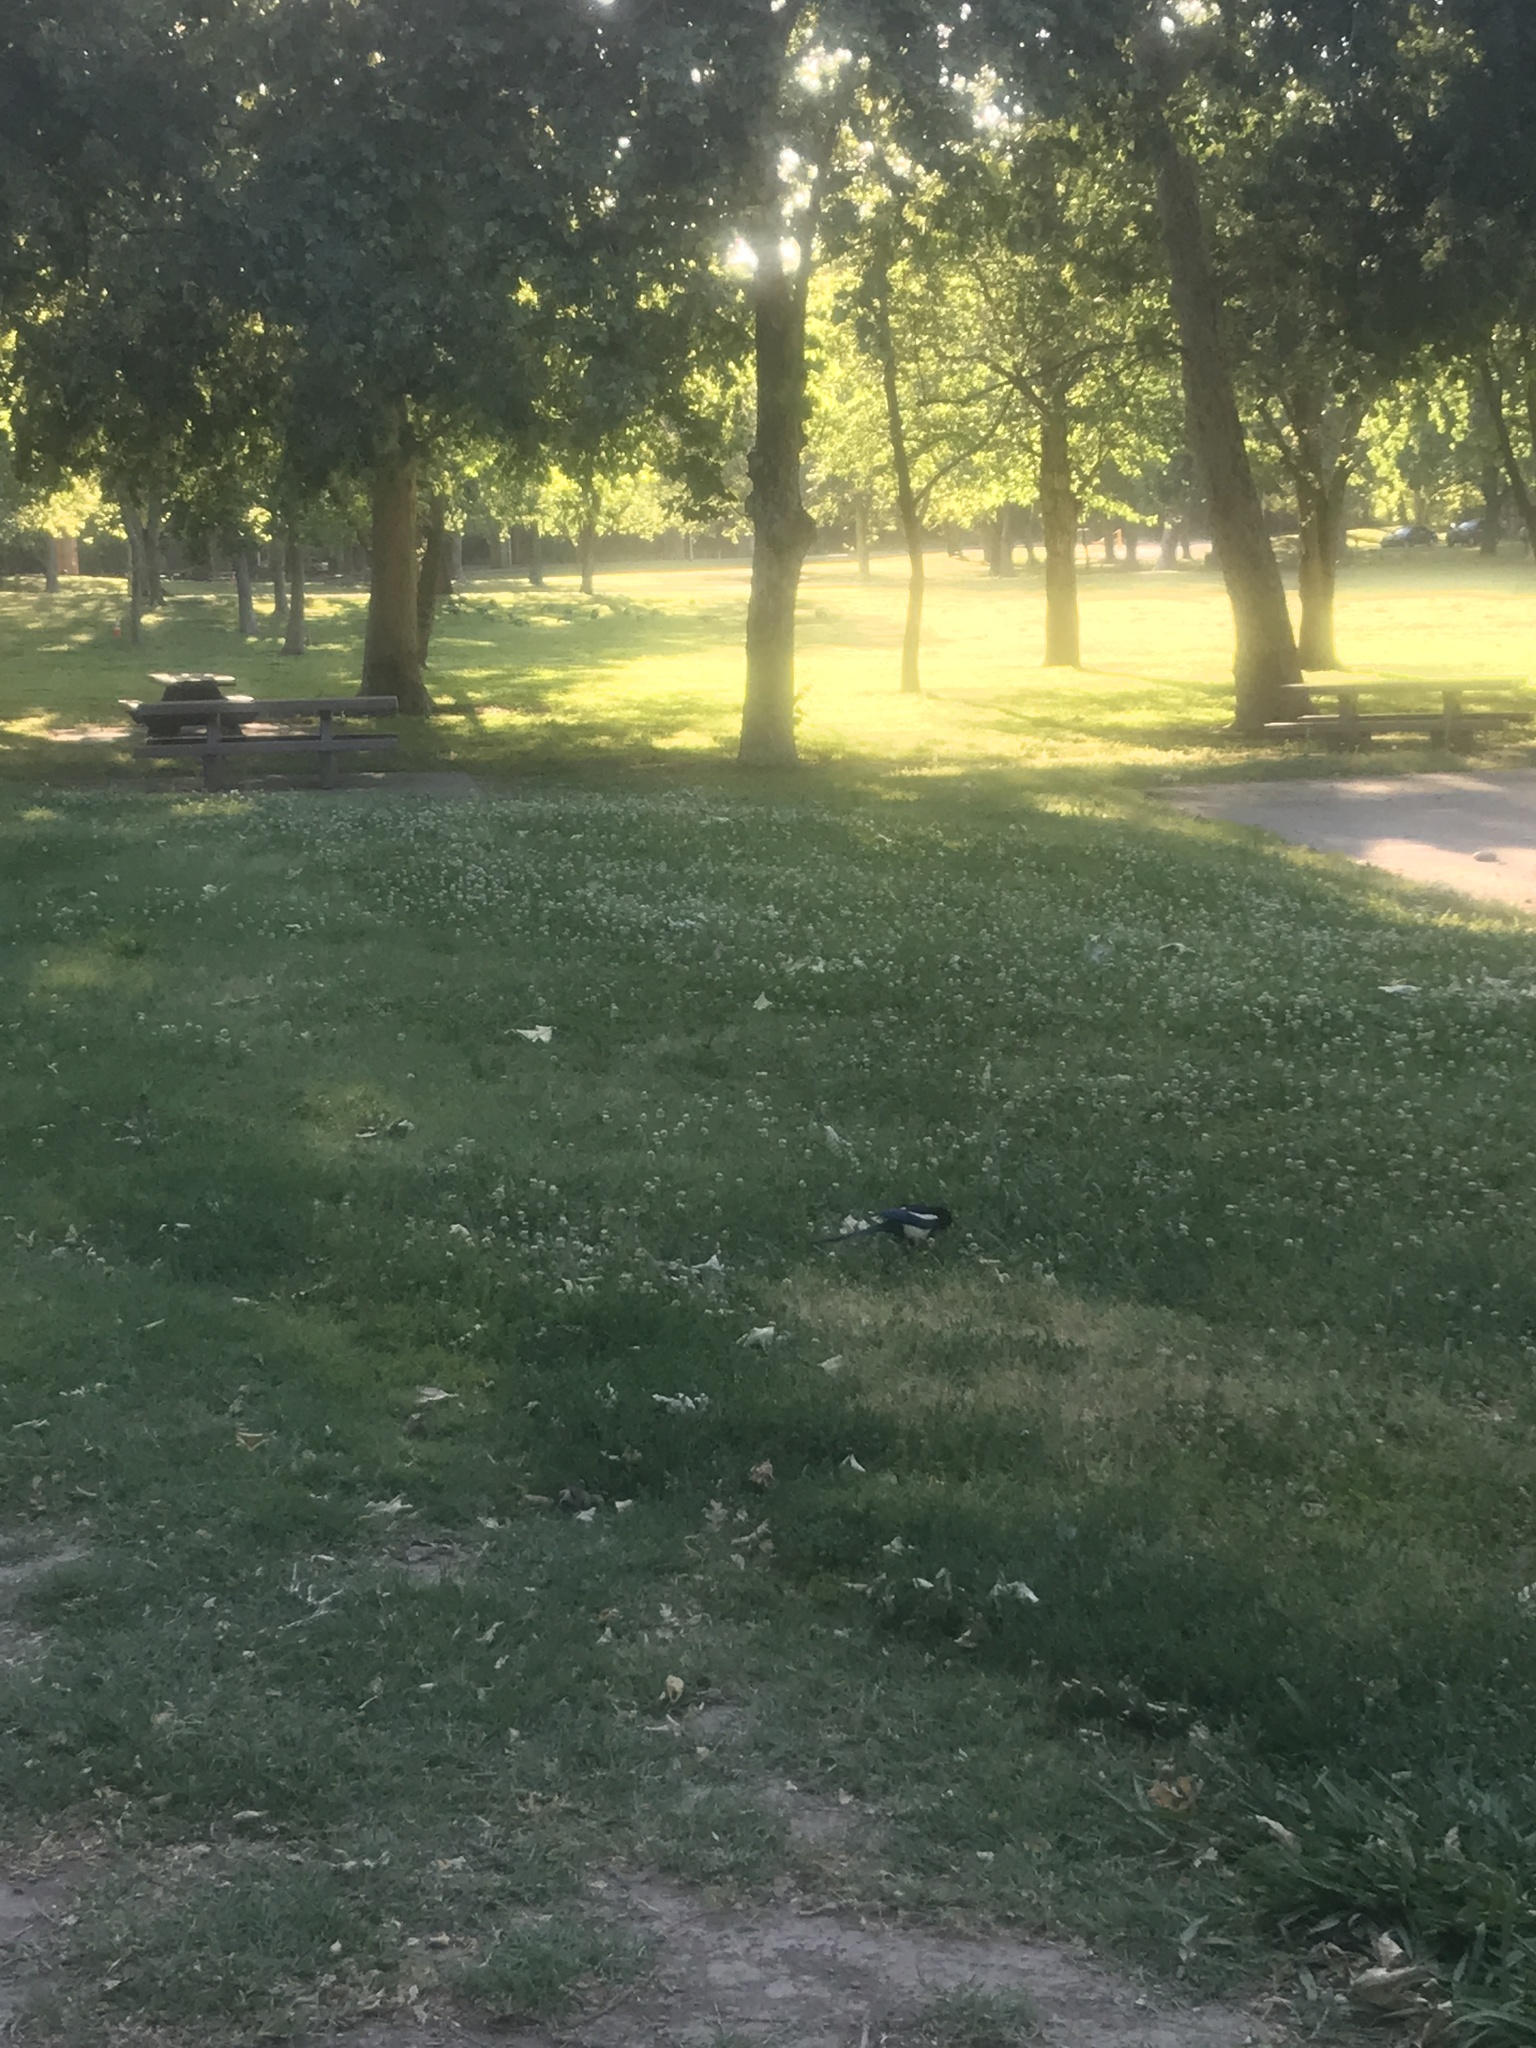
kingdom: Animalia
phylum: Chordata
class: Aves
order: Passeriformes
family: Corvidae
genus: Pica
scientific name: Pica nuttalli
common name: Yellow-billed magpie
